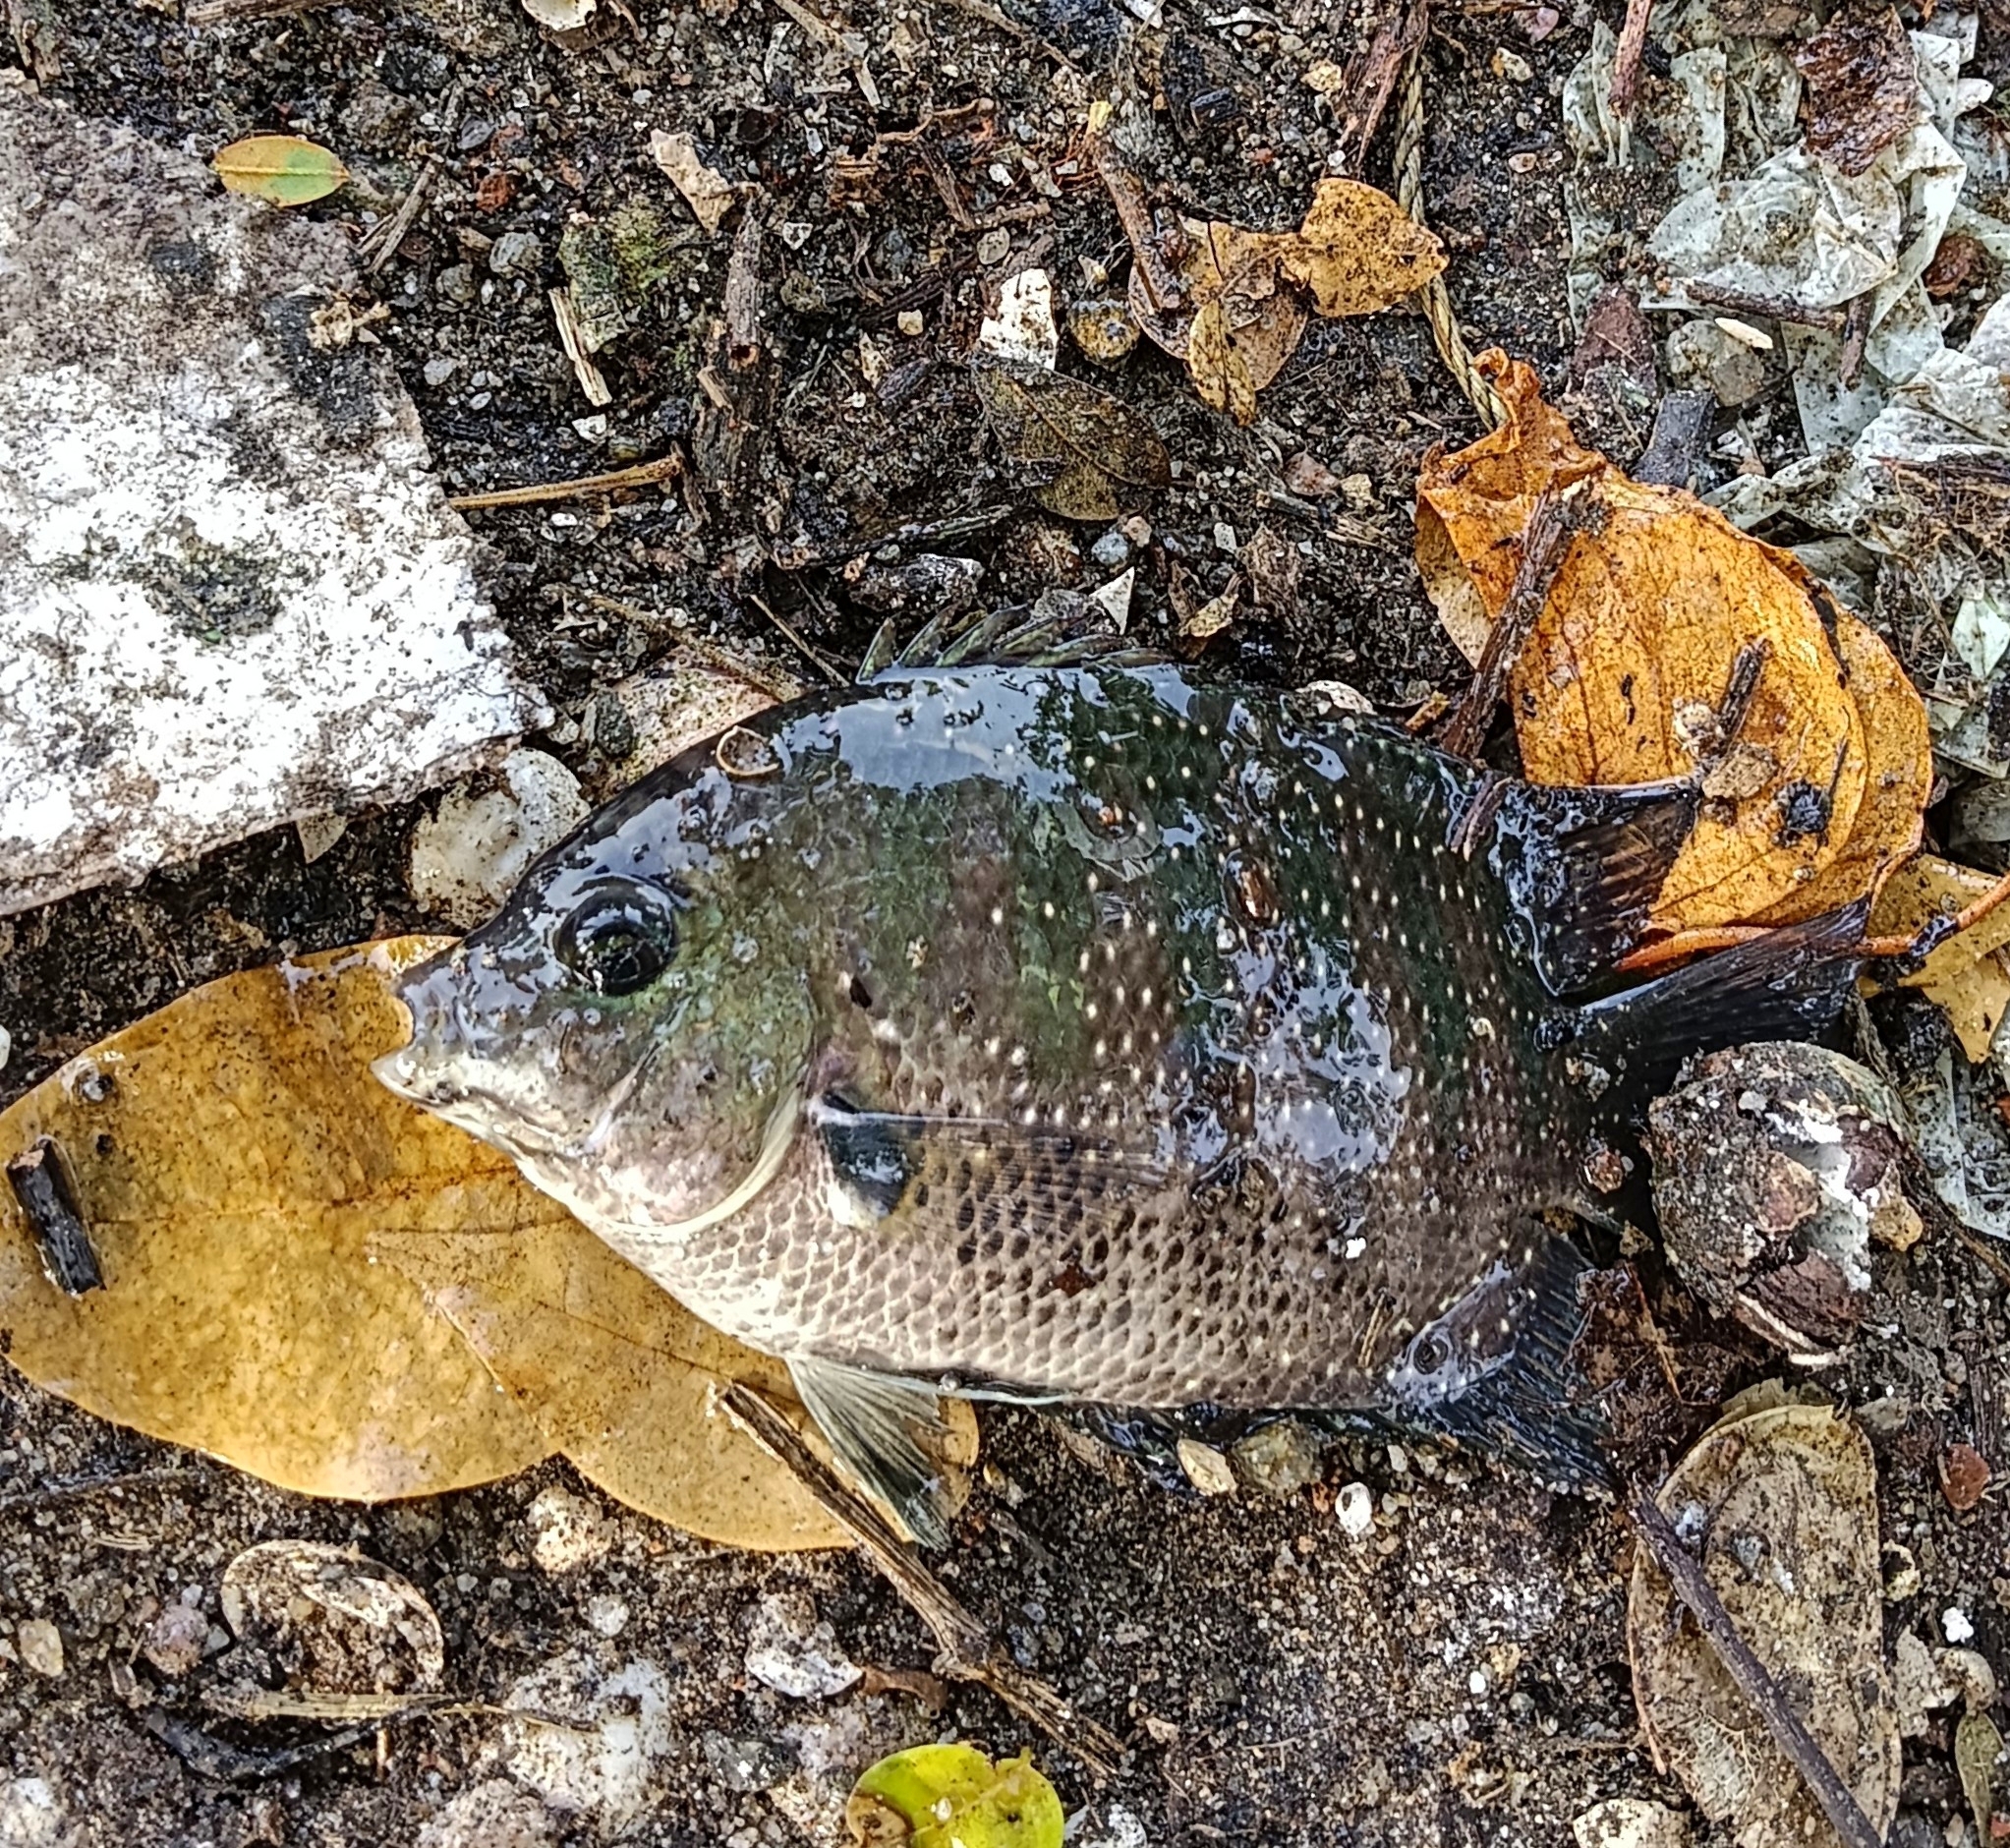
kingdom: Animalia
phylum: Chordata
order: Perciformes
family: Cichlidae
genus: Etroplus
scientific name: Etroplus suratensis
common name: Green chromide
